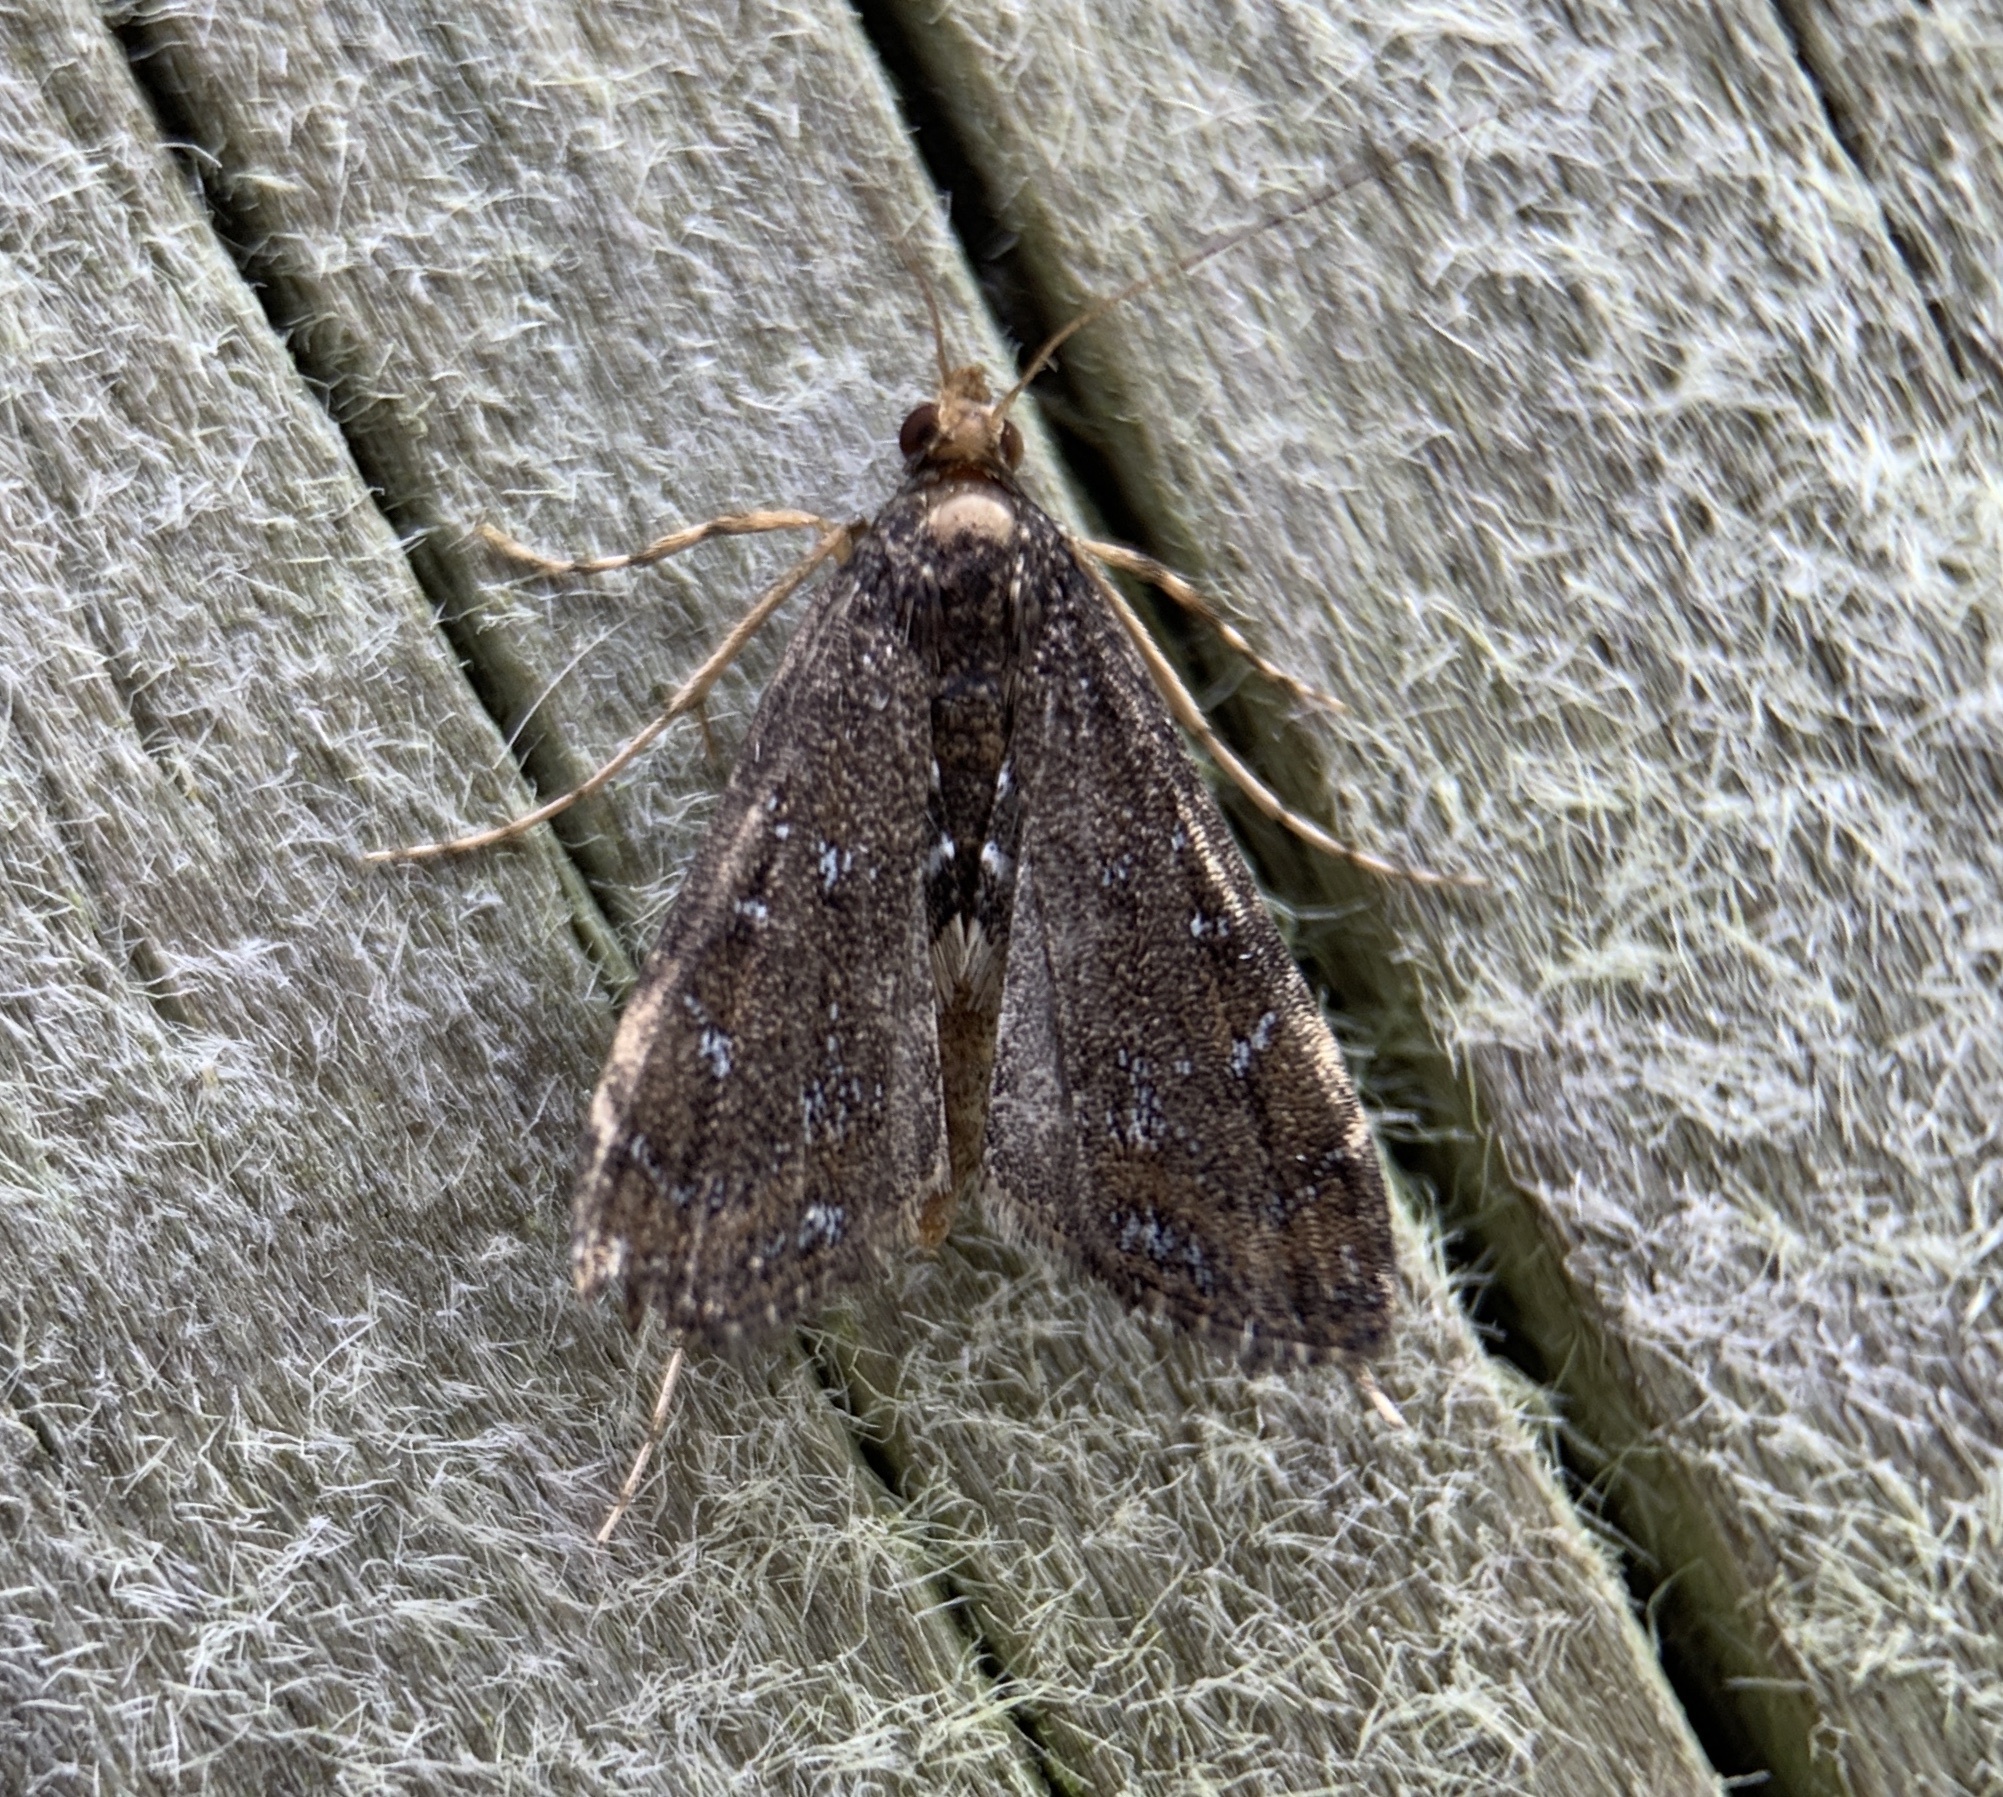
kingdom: Animalia
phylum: Arthropoda
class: Insecta
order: Lepidoptera
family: Crambidae
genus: Langessa
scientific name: Langessa nomophilalis
